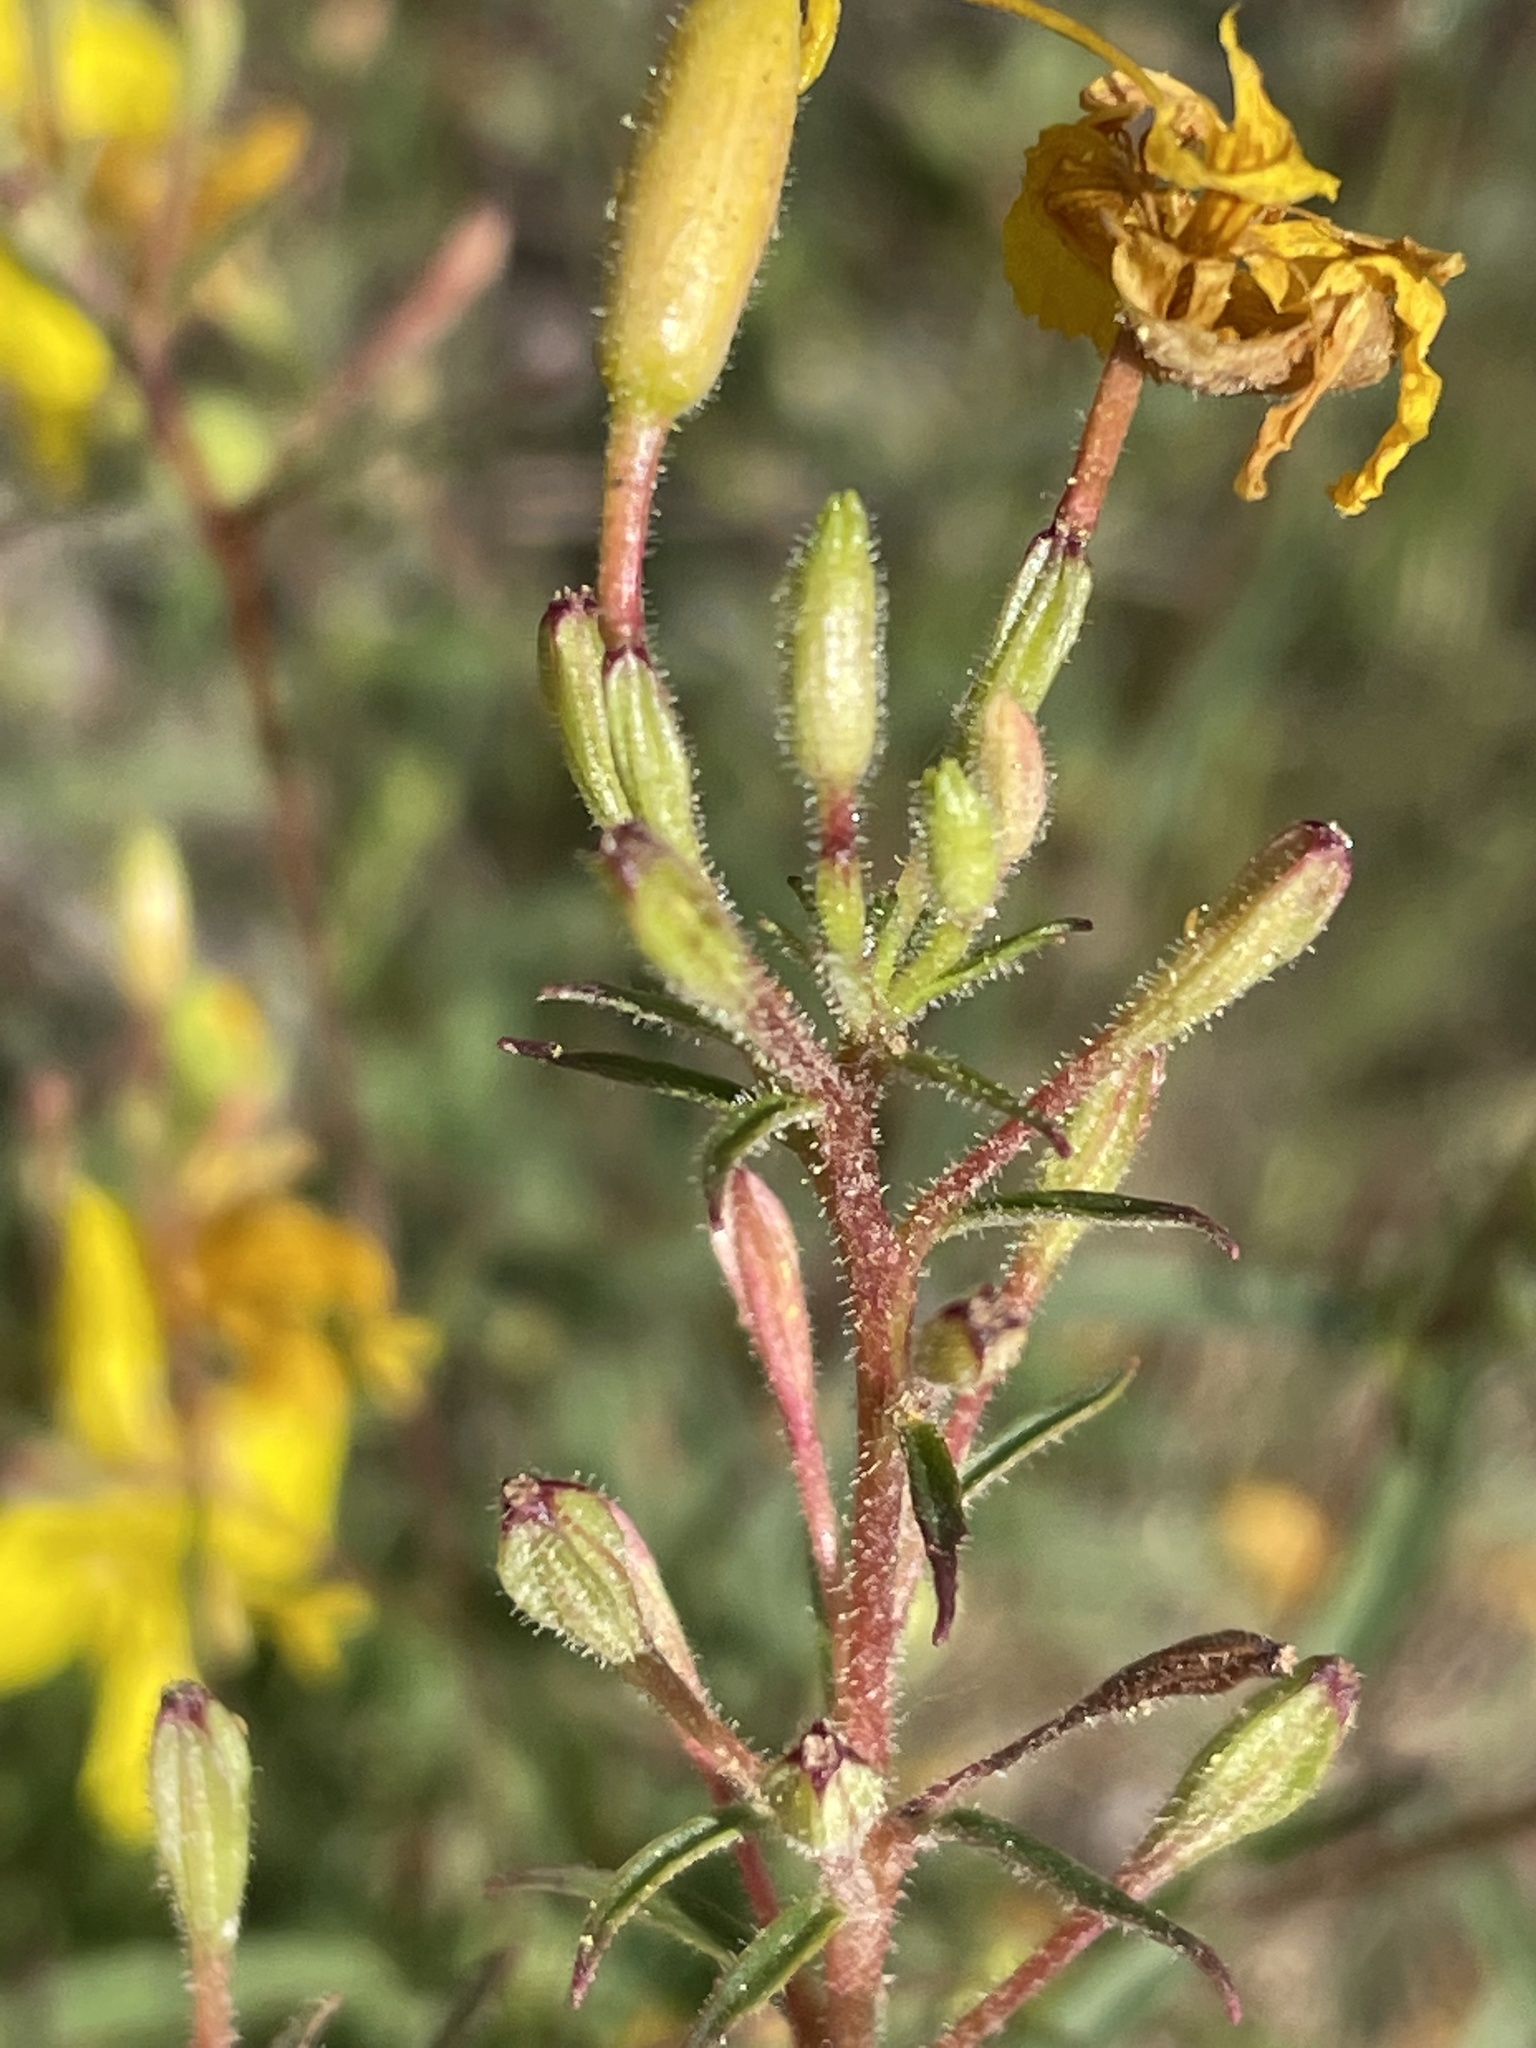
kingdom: Plantae
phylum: Tracheophyta
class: Magnoliopsida
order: Myrtales
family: Onagraceae
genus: Oenothera
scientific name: Oenothera fruticosa
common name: Southern sundrops
